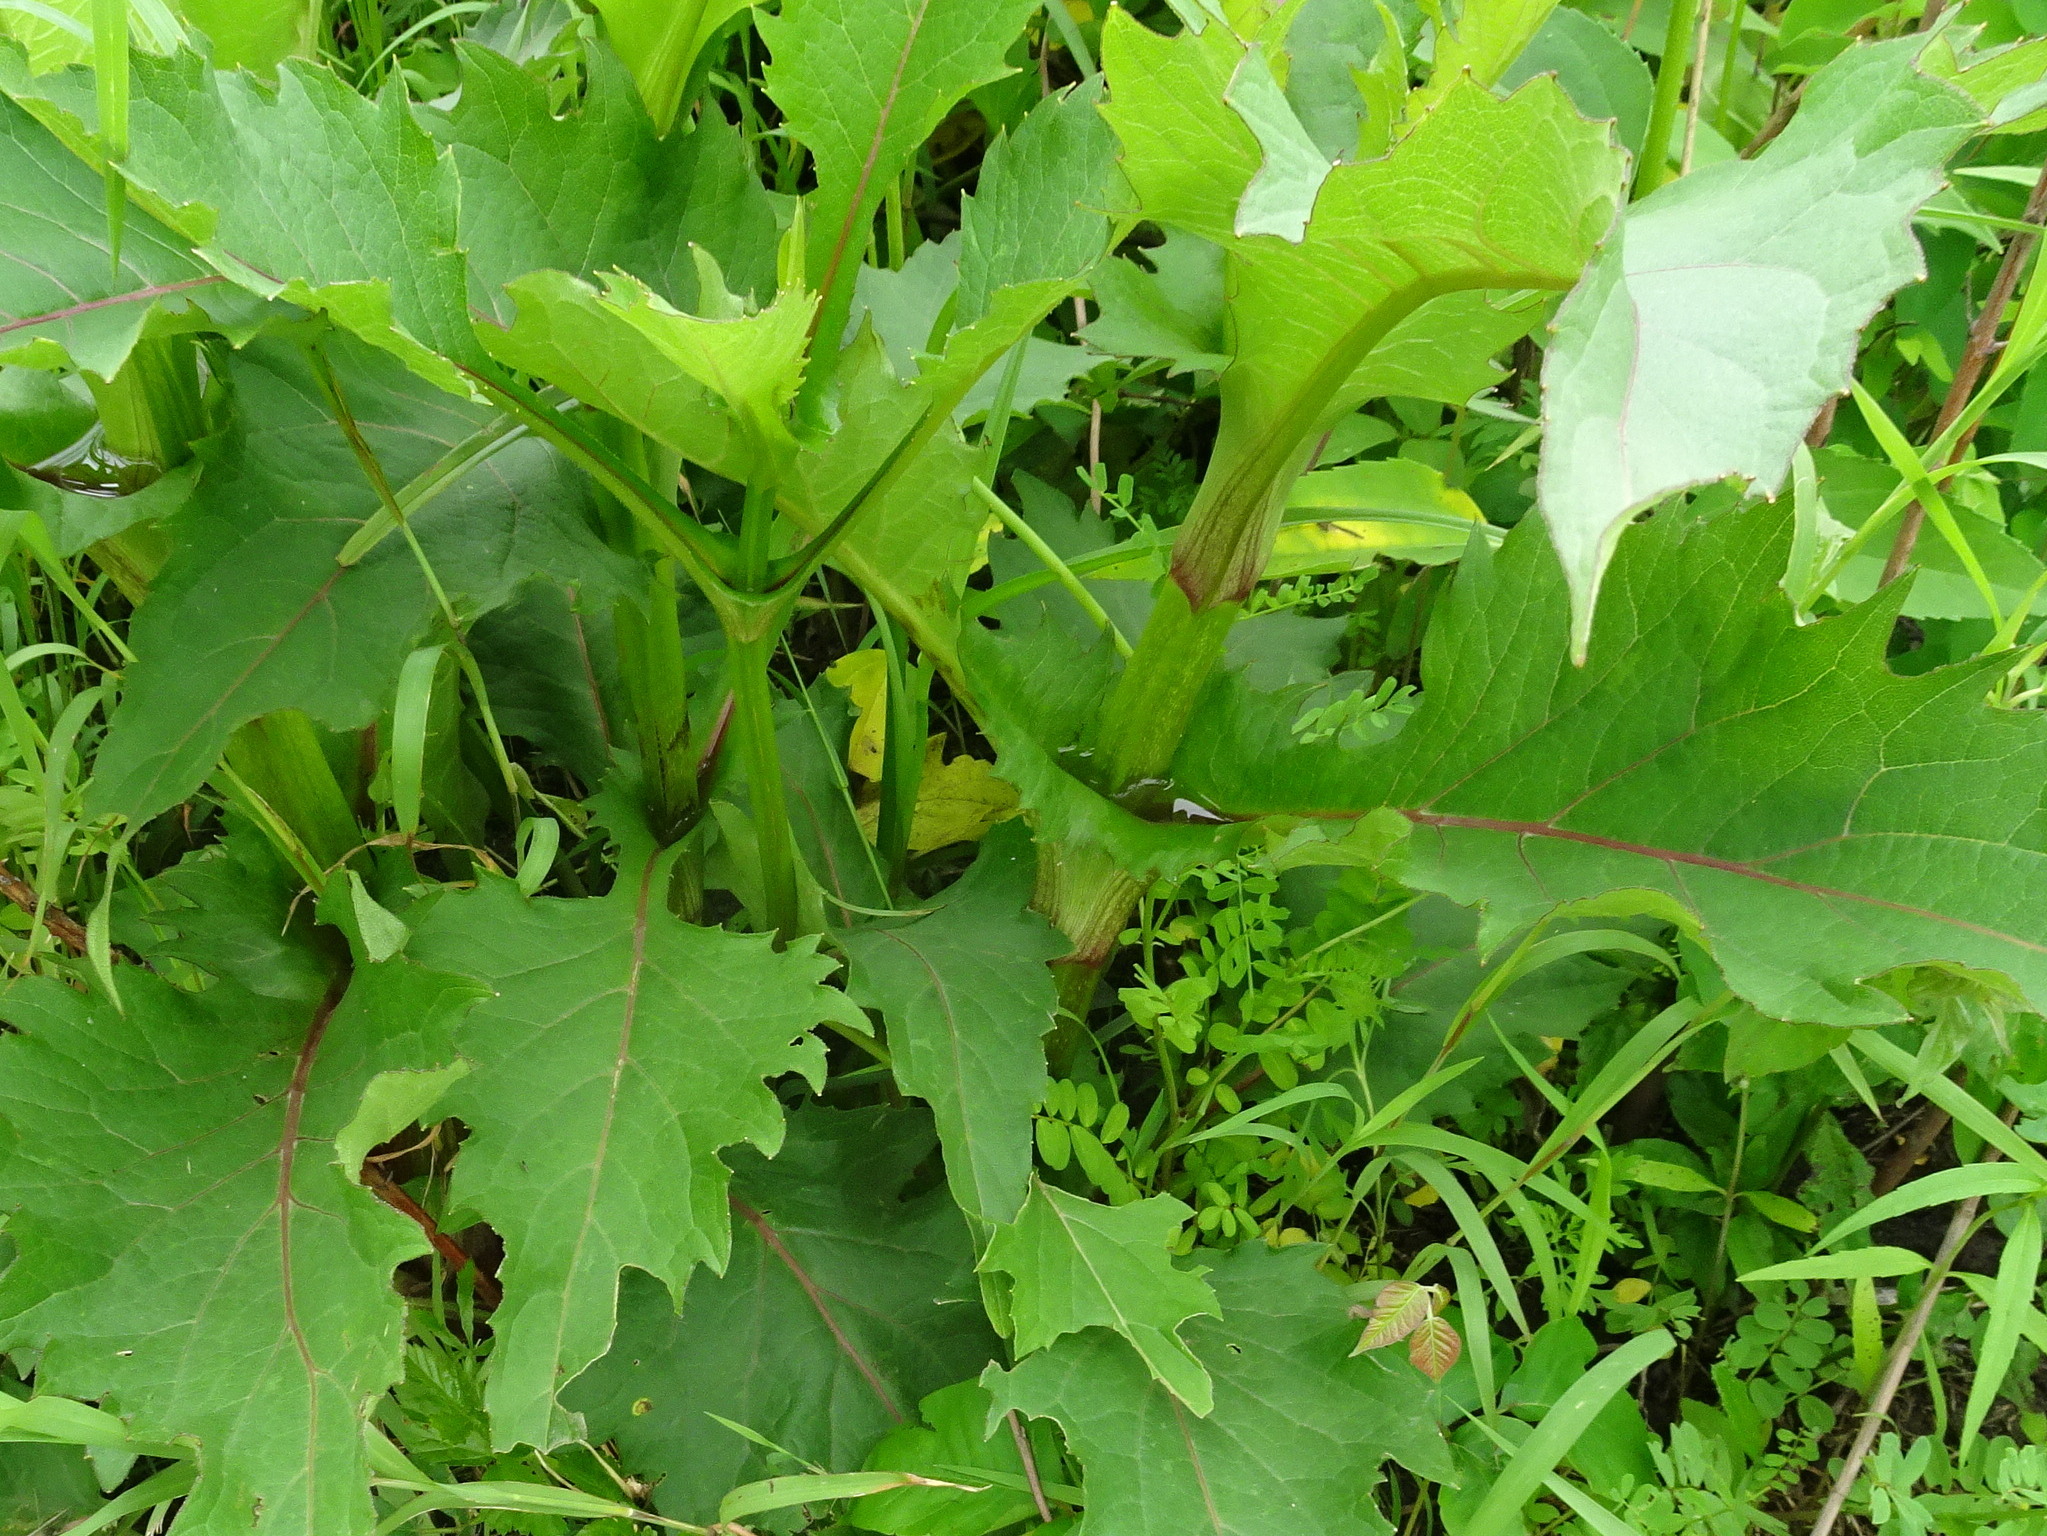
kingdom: Plantae
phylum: Tracheophyta
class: Magnoliopsida
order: Asterales
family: Asteraceae
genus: Silphium
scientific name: Silphium perfoliatum
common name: Cup-plant
